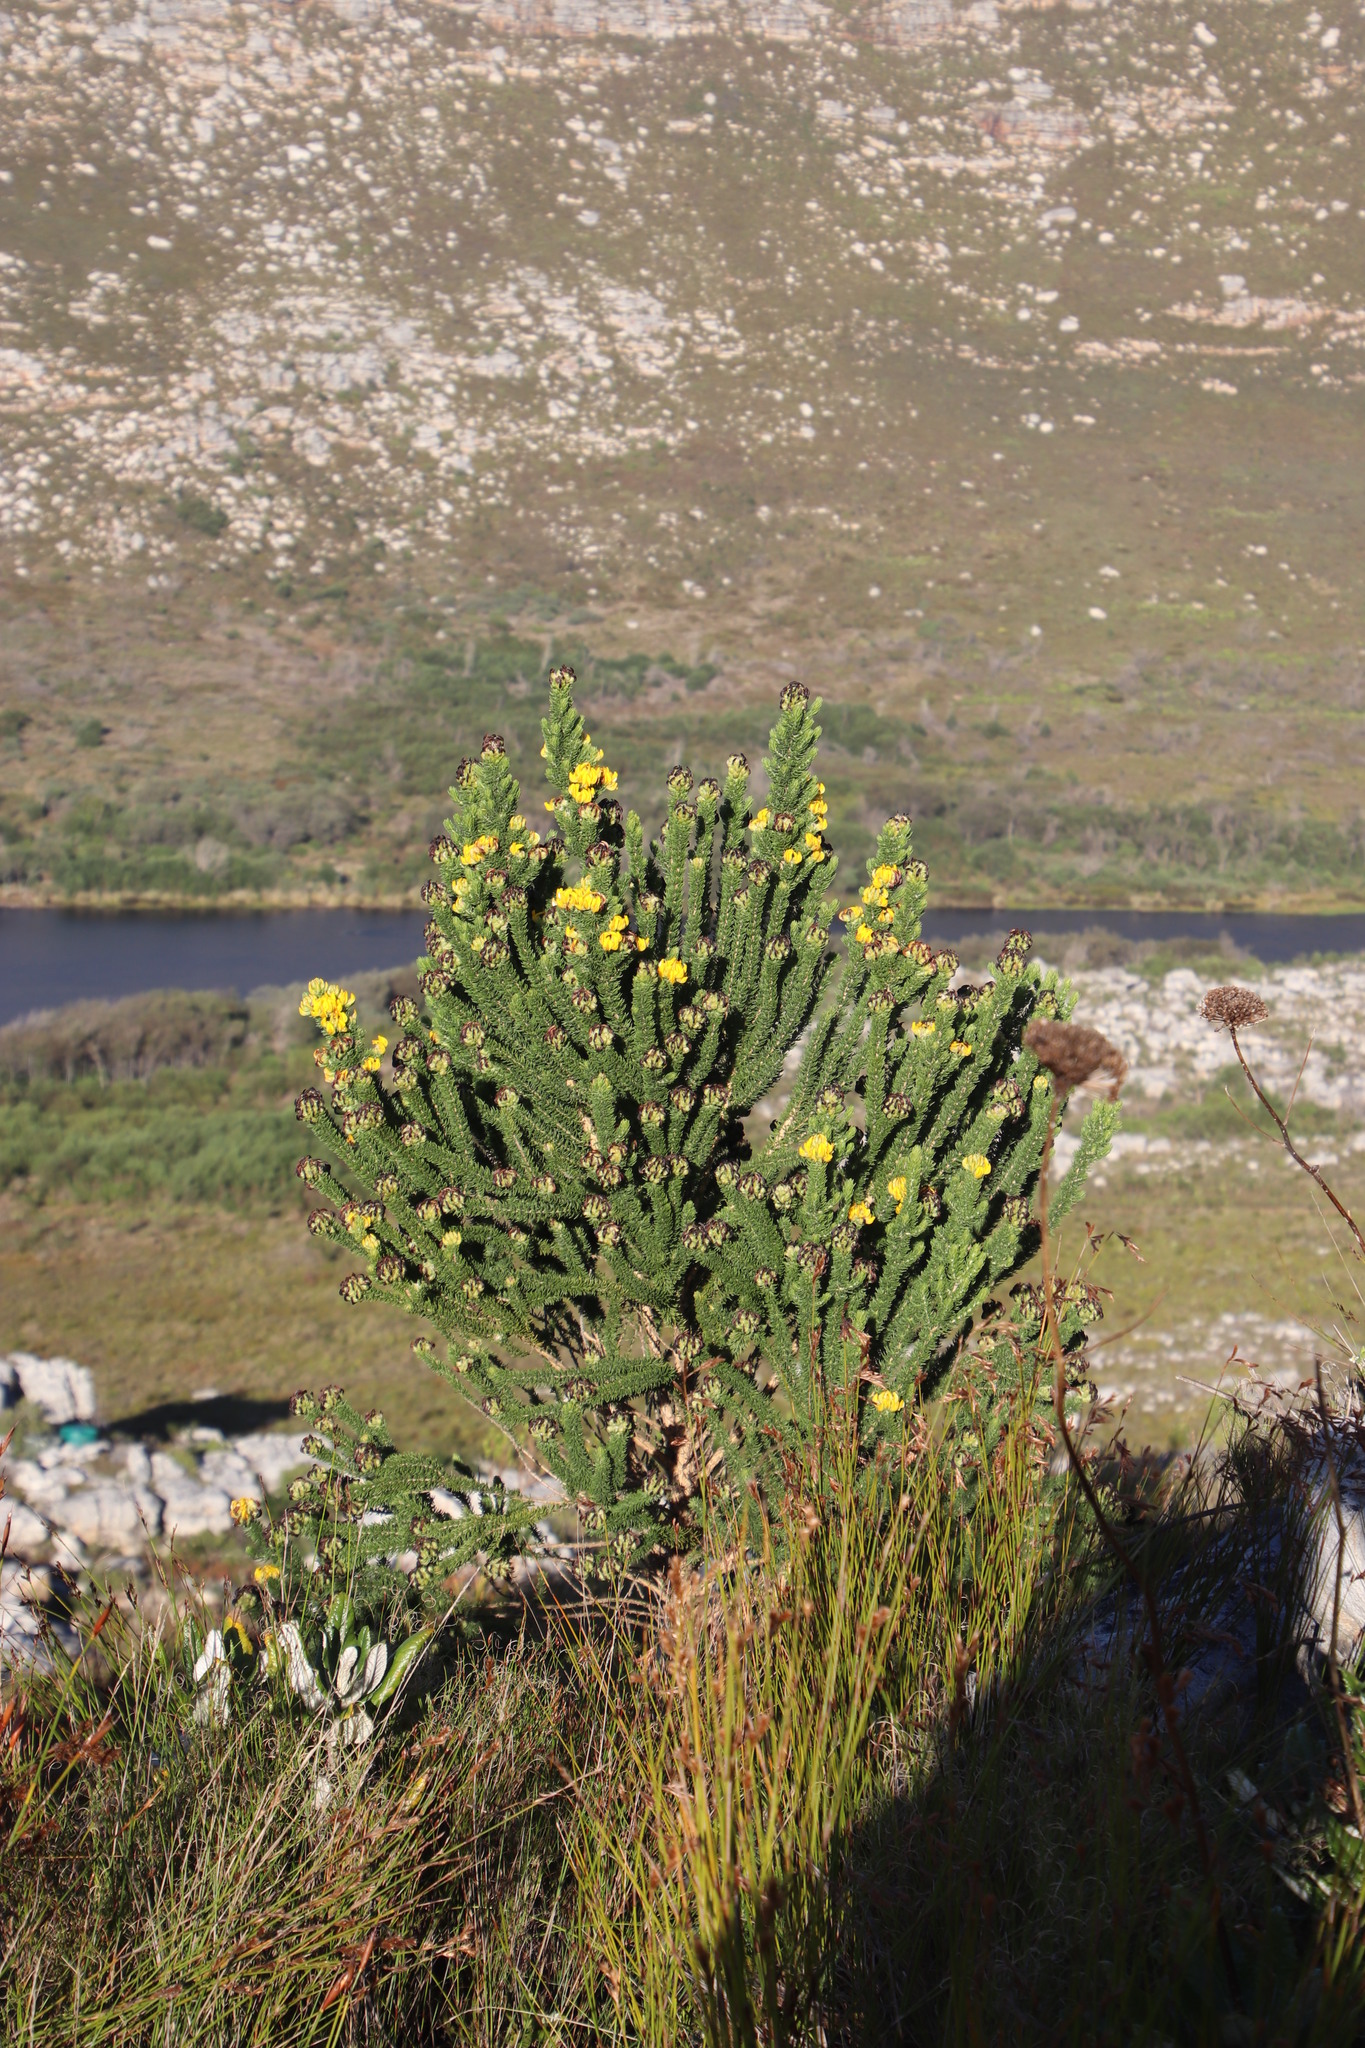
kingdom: Plantae
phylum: Tracheophyta
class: Magnoliopsida
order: Fabales
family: Fabaceae
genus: Aspalathus
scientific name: Aspalathus capitata
